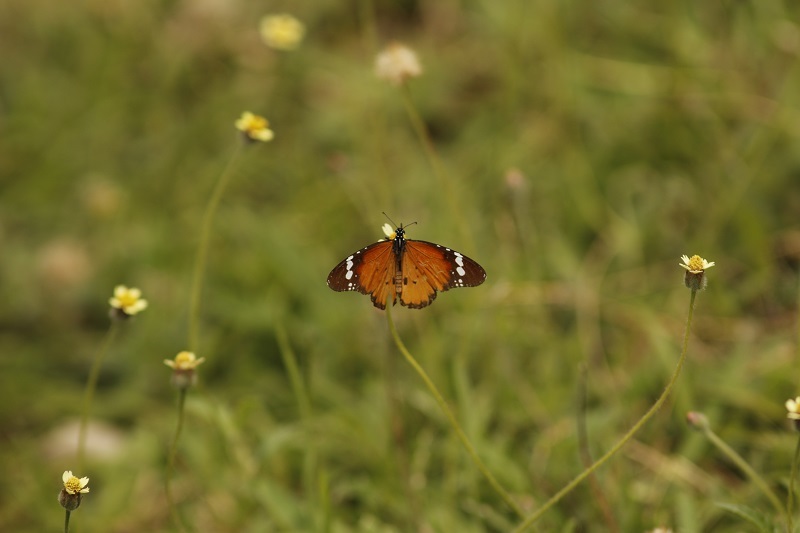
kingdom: Animalia
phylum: Arthropoda
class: Insecta
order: Lepidoptera
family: Nymphalidae
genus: Danaus
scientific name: Danaus chrysippus
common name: Plain tiger
